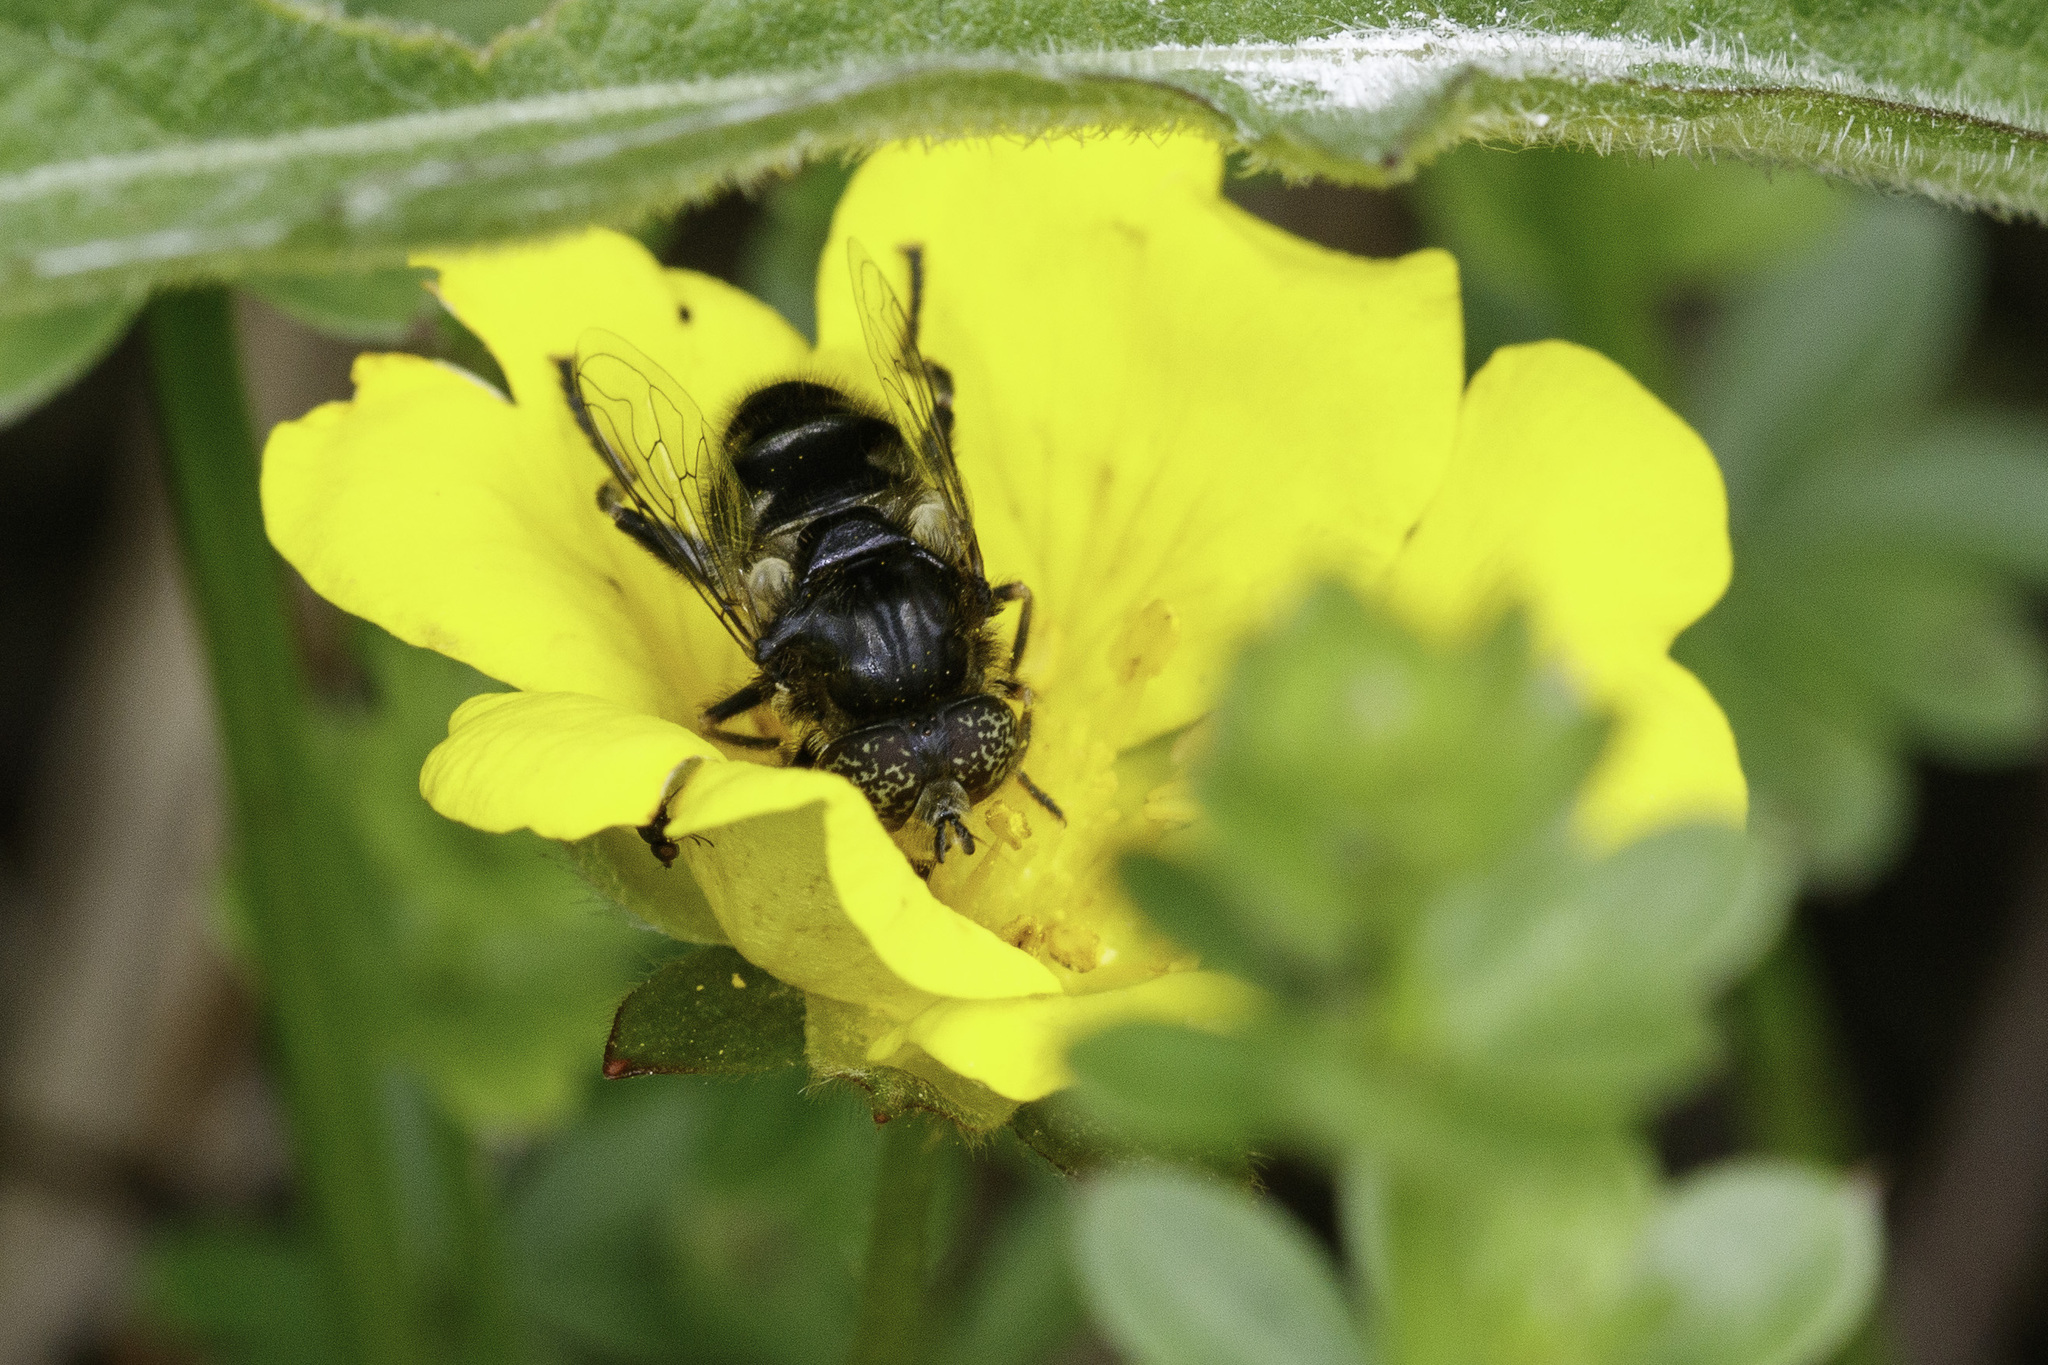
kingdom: Animalia
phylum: Arthropoda
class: Insecta
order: Diptera
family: Syrphidae
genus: Eristalinus
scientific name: Eristalinus sepulchralis
